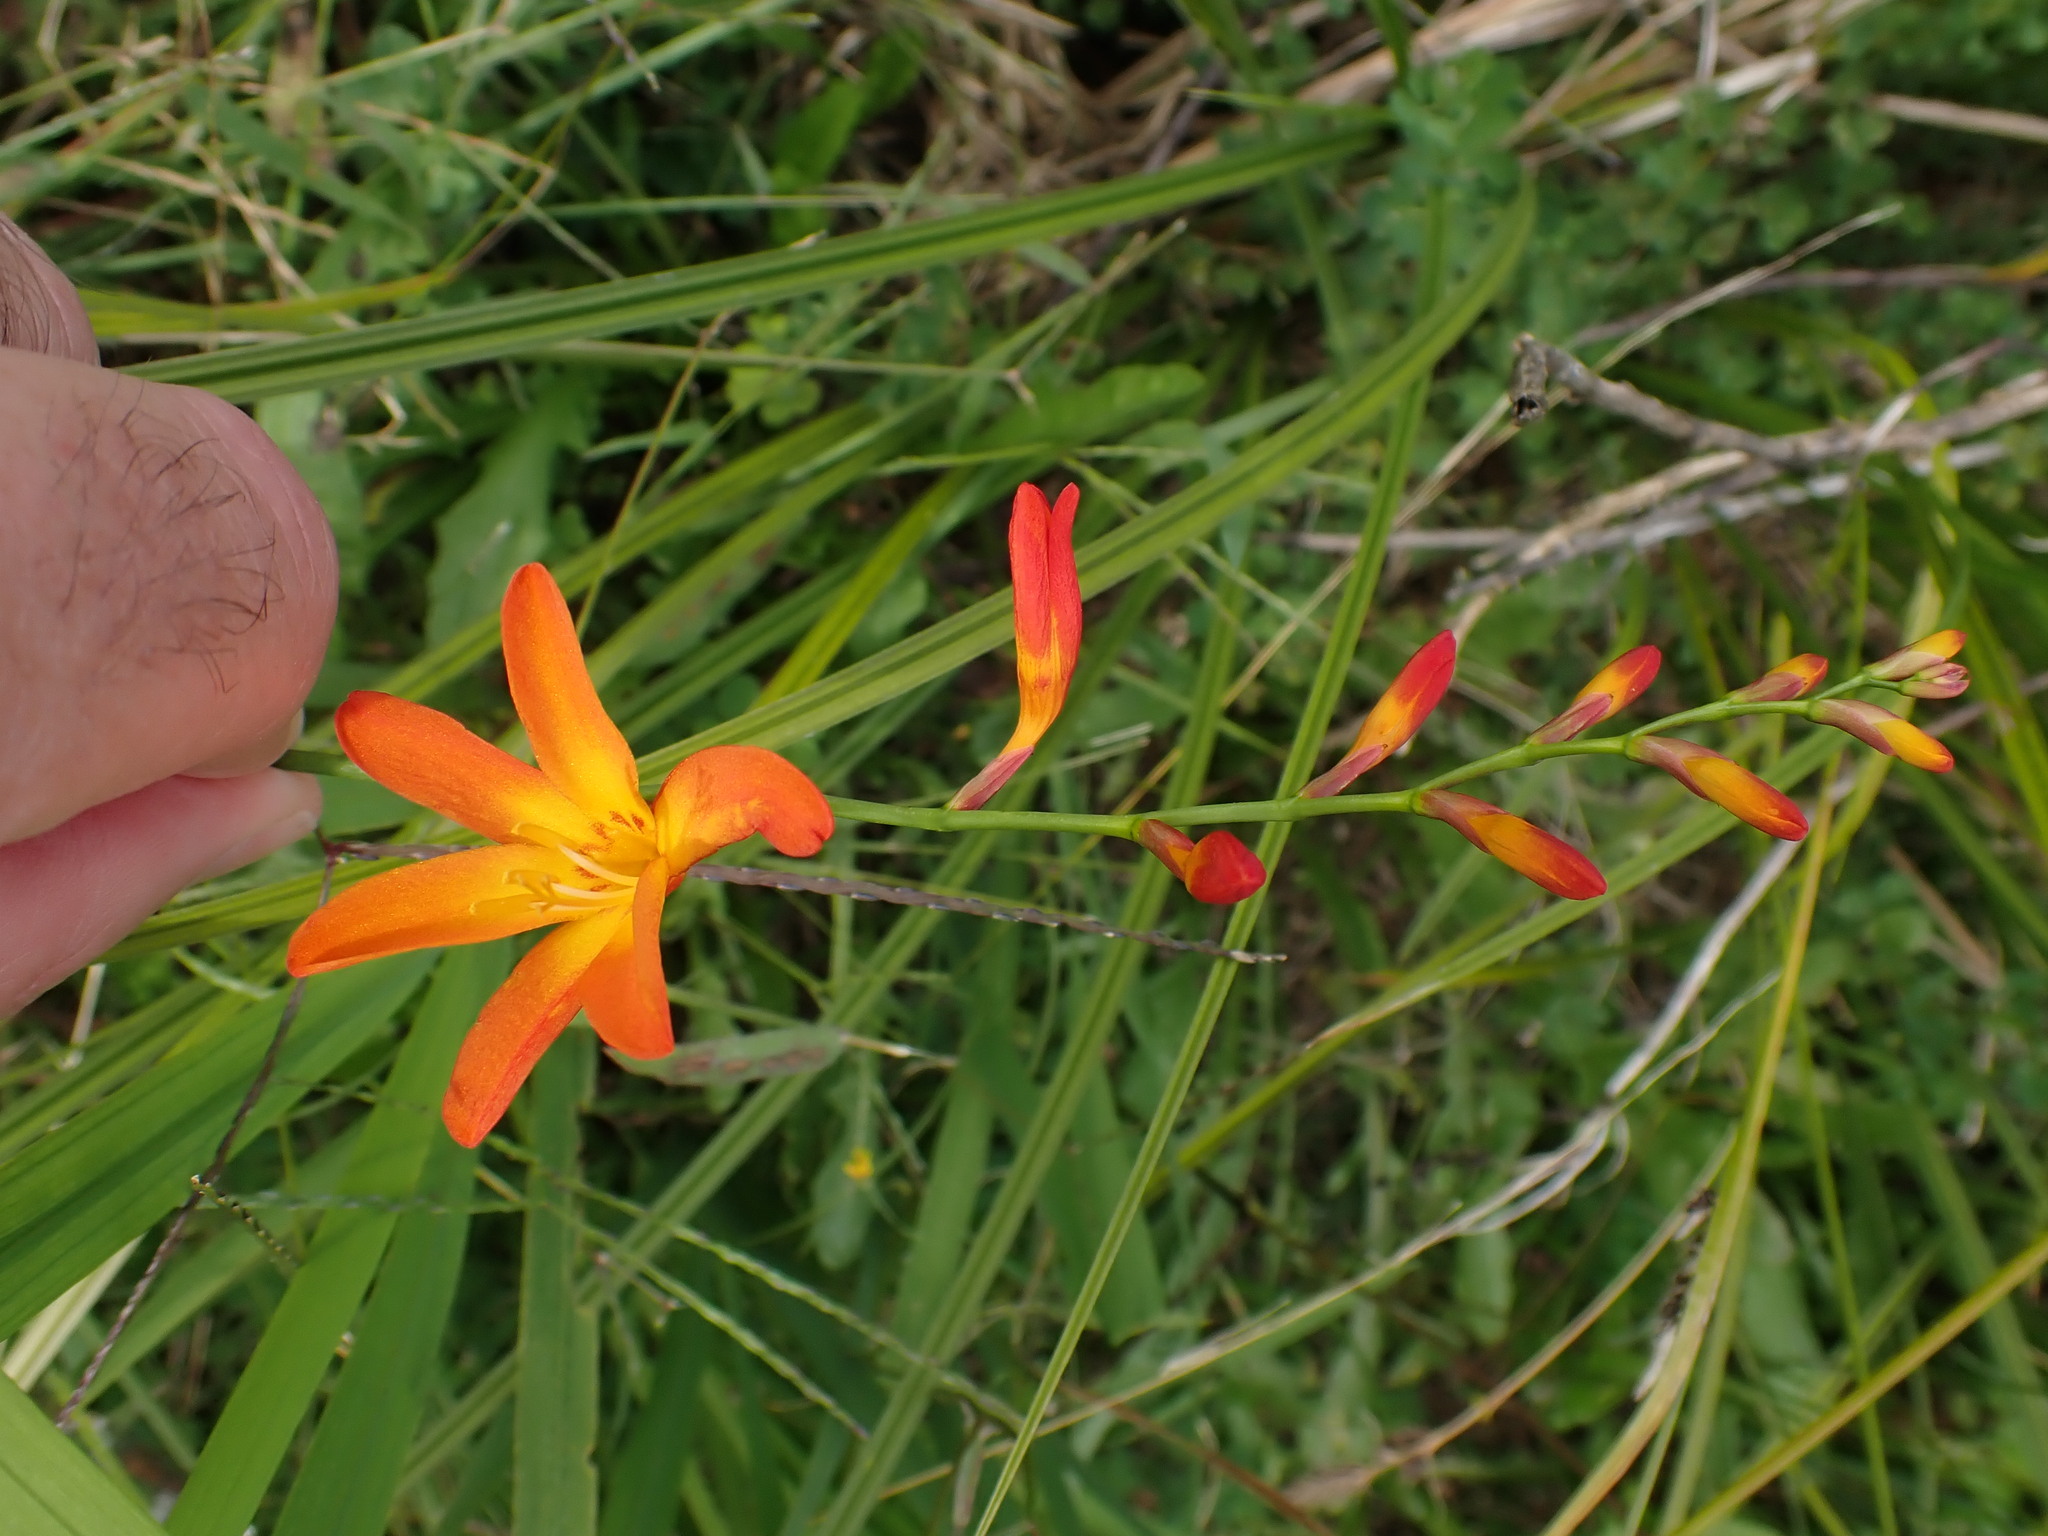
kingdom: Plantae
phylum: Tracheophyta
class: Liliopsida
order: Asparagales
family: Iridaceae
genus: Crocosmia
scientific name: Crocosmia crocosmiiflora
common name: Montbretia
